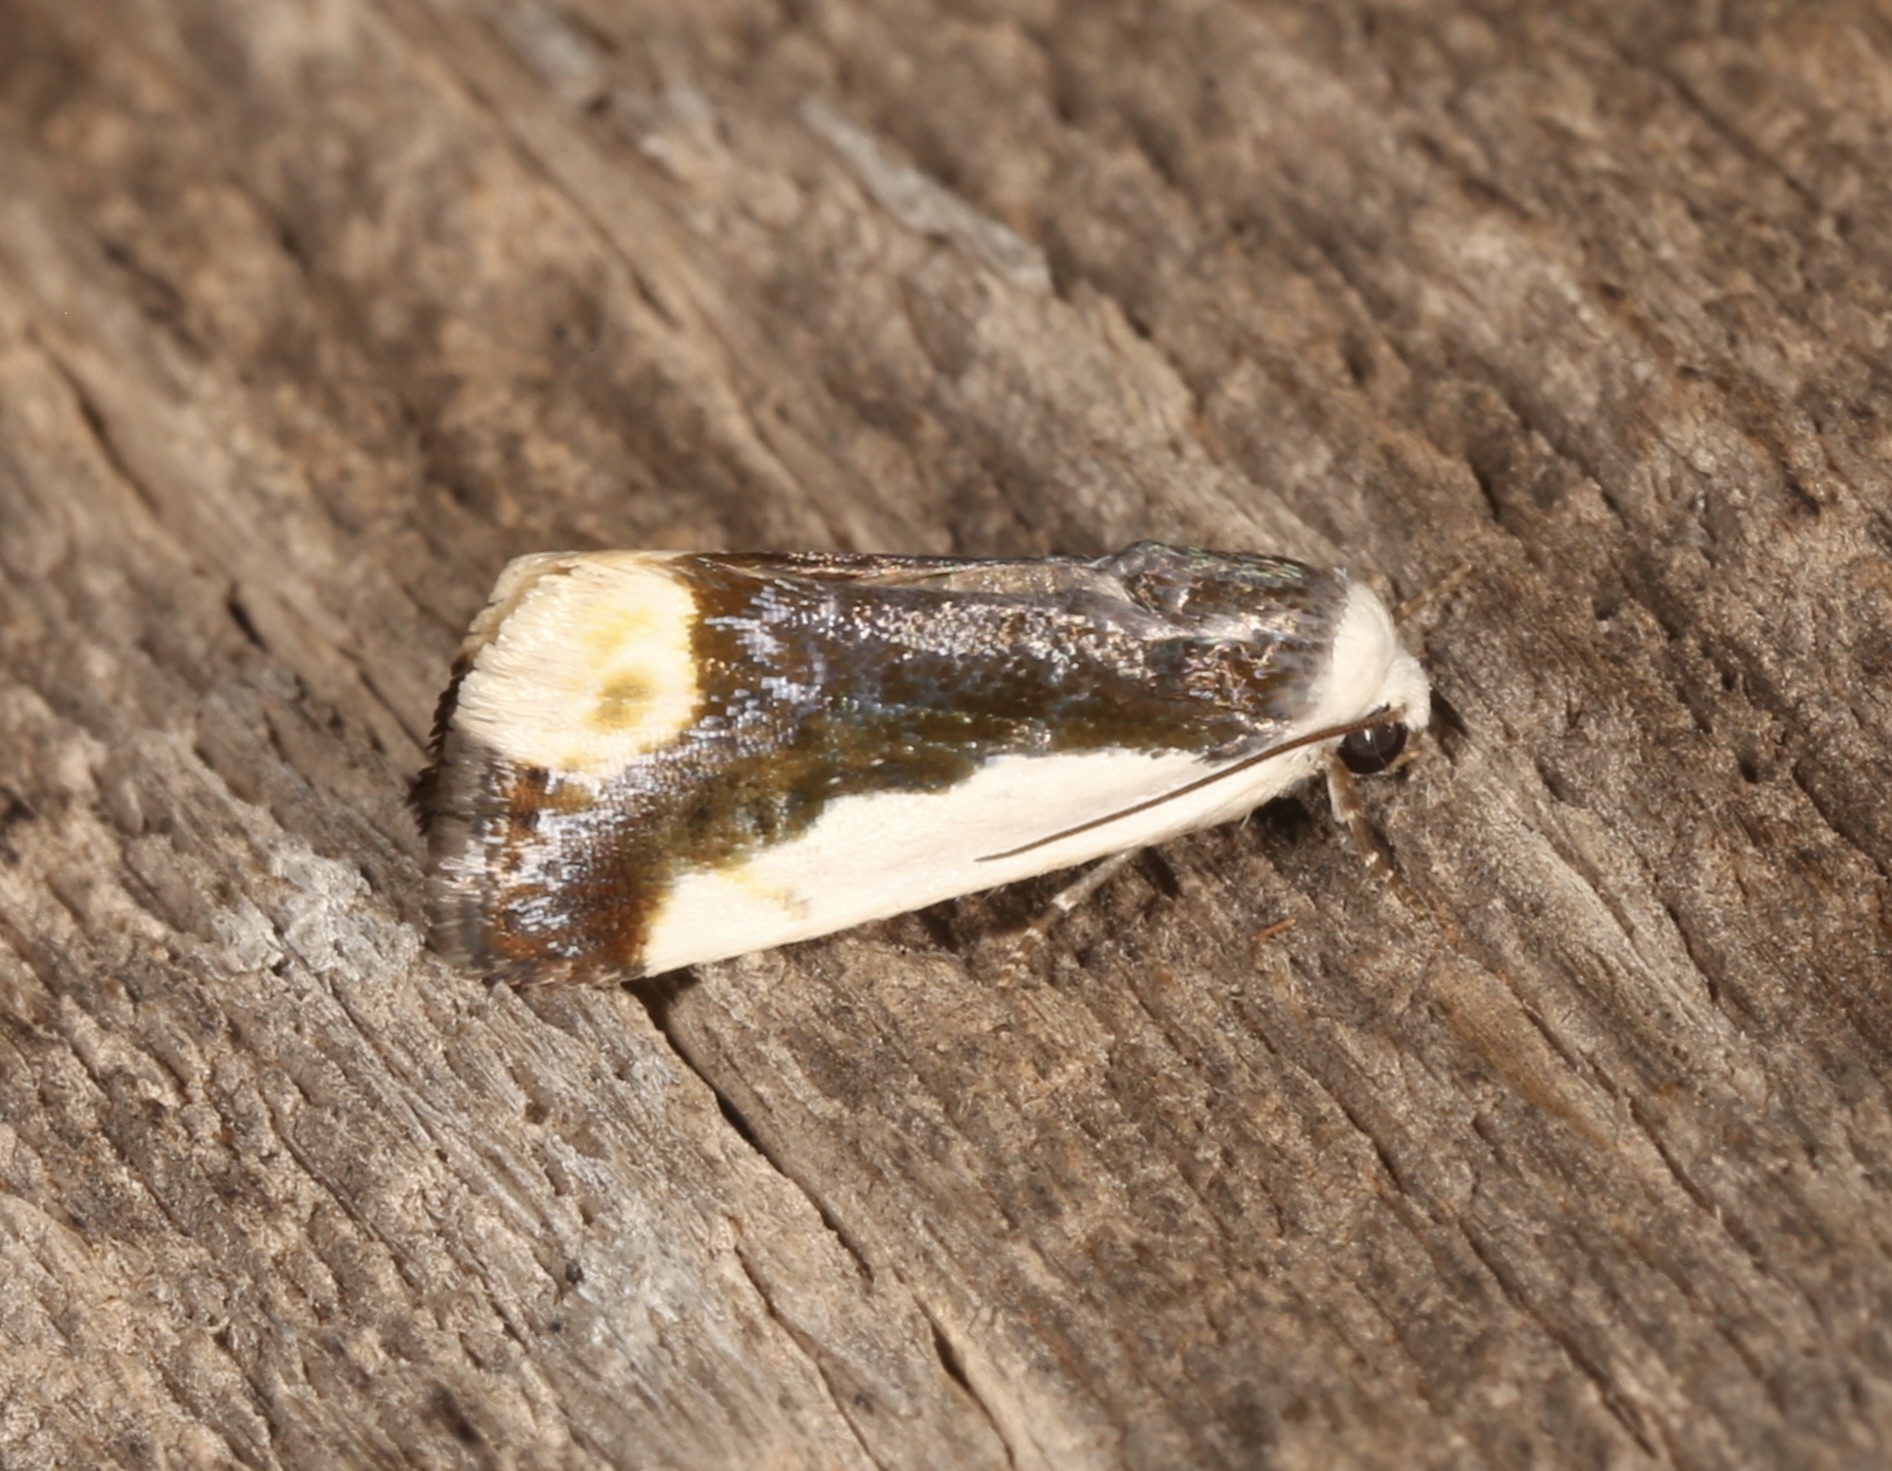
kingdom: Animalia
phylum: Arthropoda
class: Insecta
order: Lepidoptera
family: Noctuidae
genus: Acontia
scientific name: Acontia Tarache expolita
